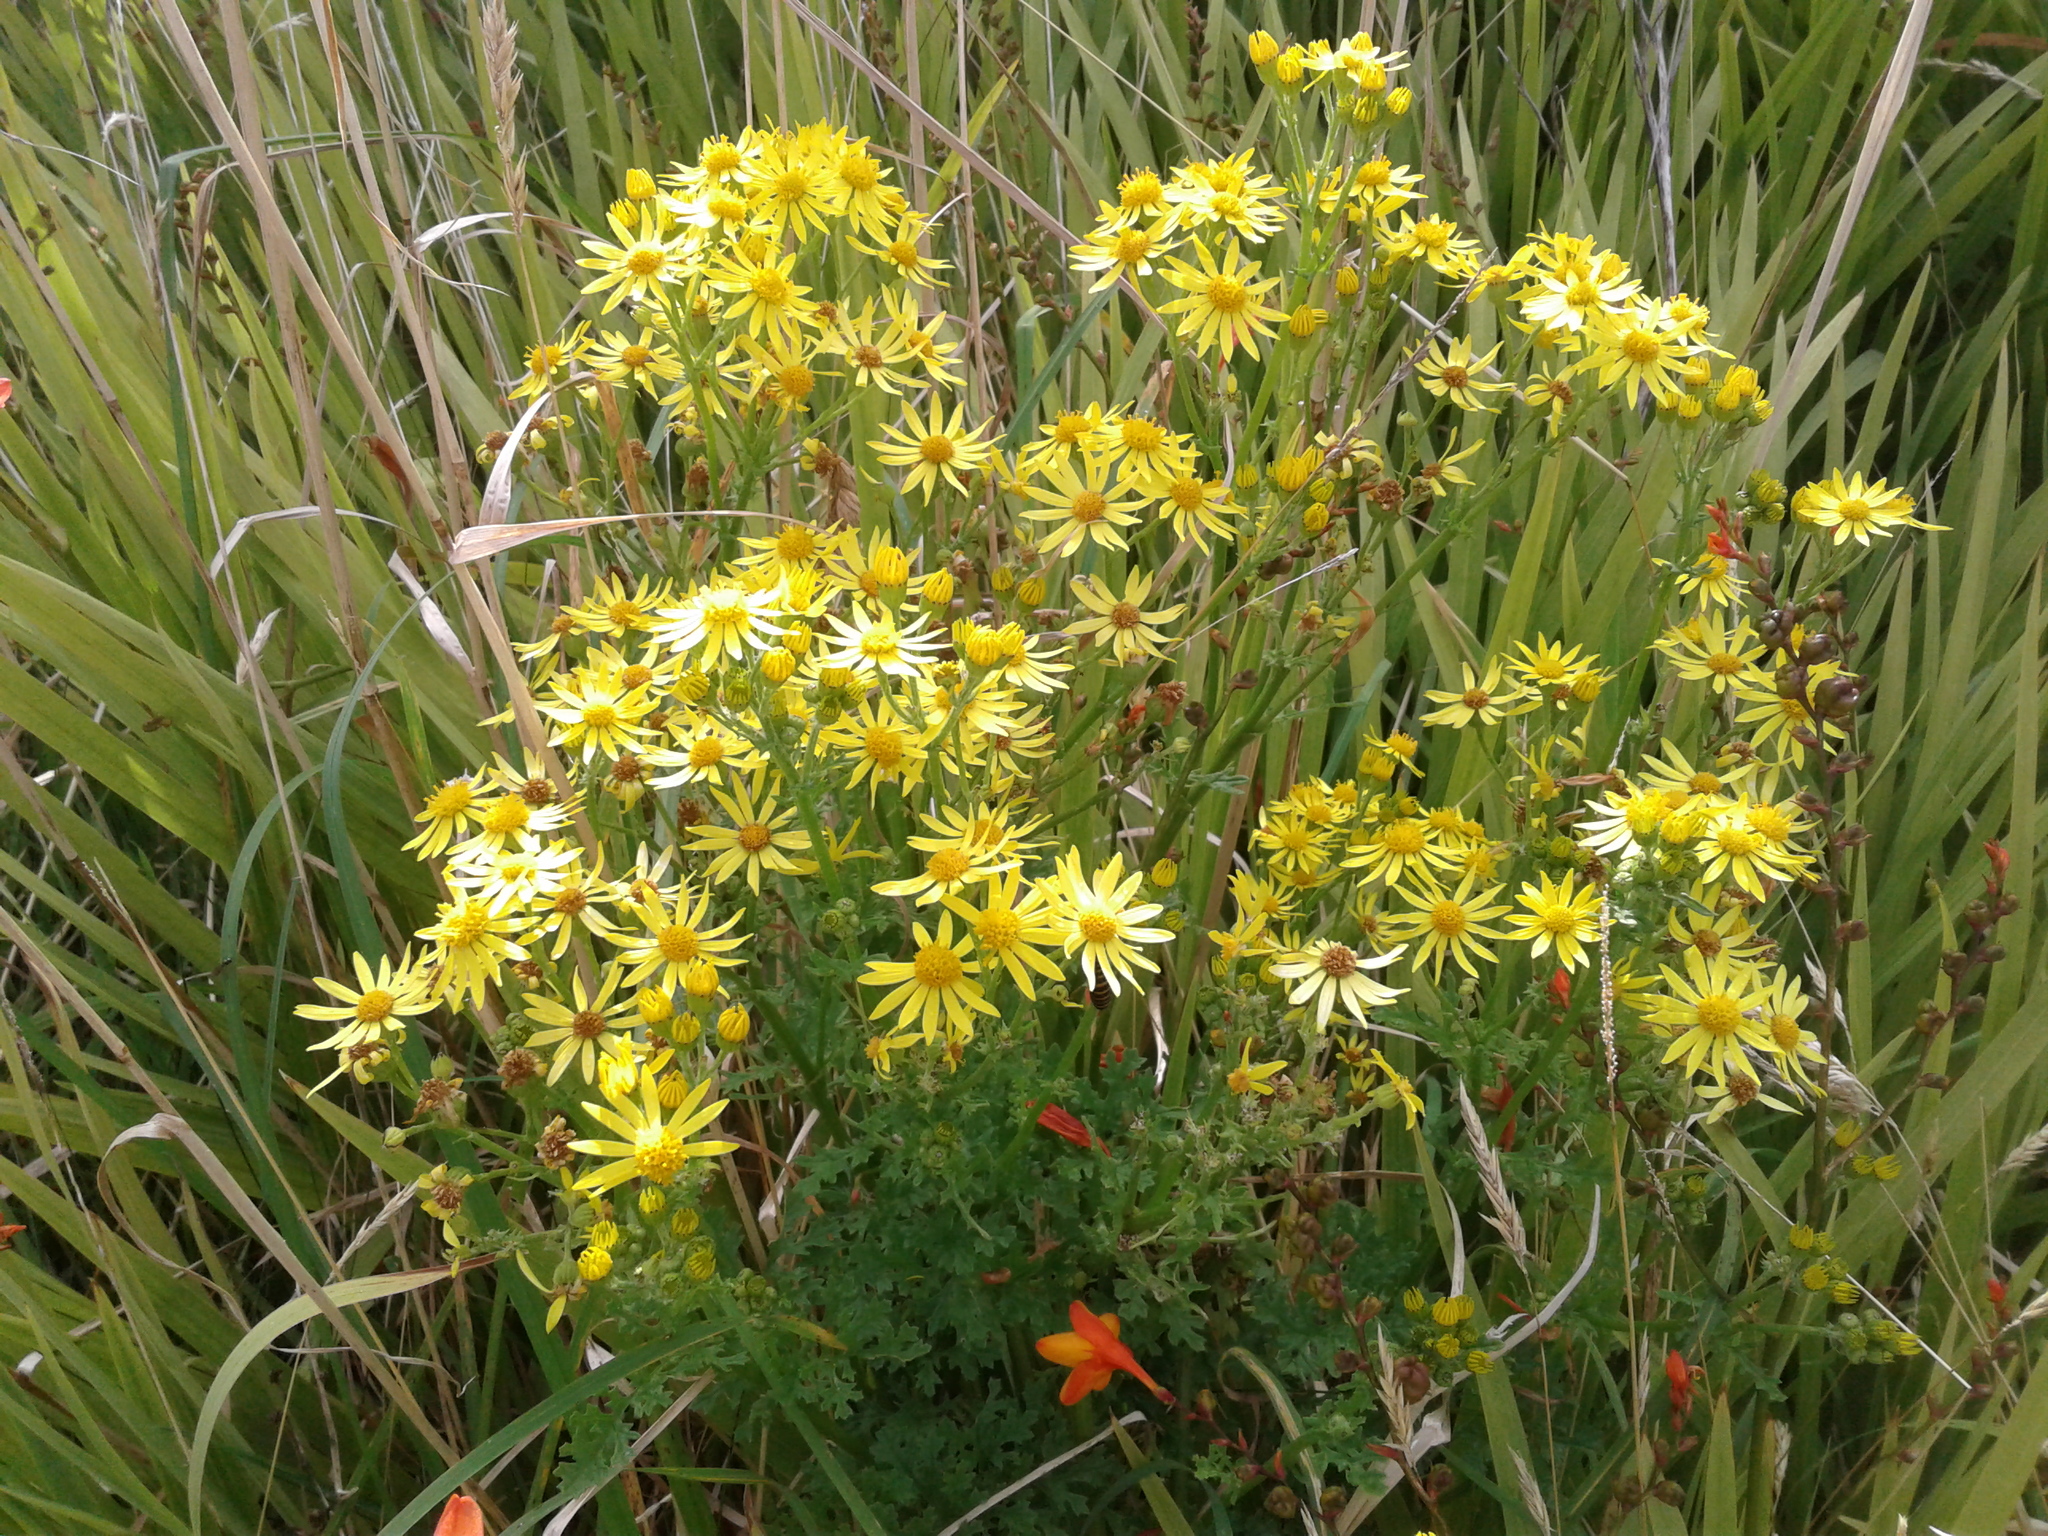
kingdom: Plantae
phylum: Tracheophyta
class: Magnoliopsida
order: Asterales
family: Asteraceae
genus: Jacobaea
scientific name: Jacobaea vulgaris
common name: Stinking willie
